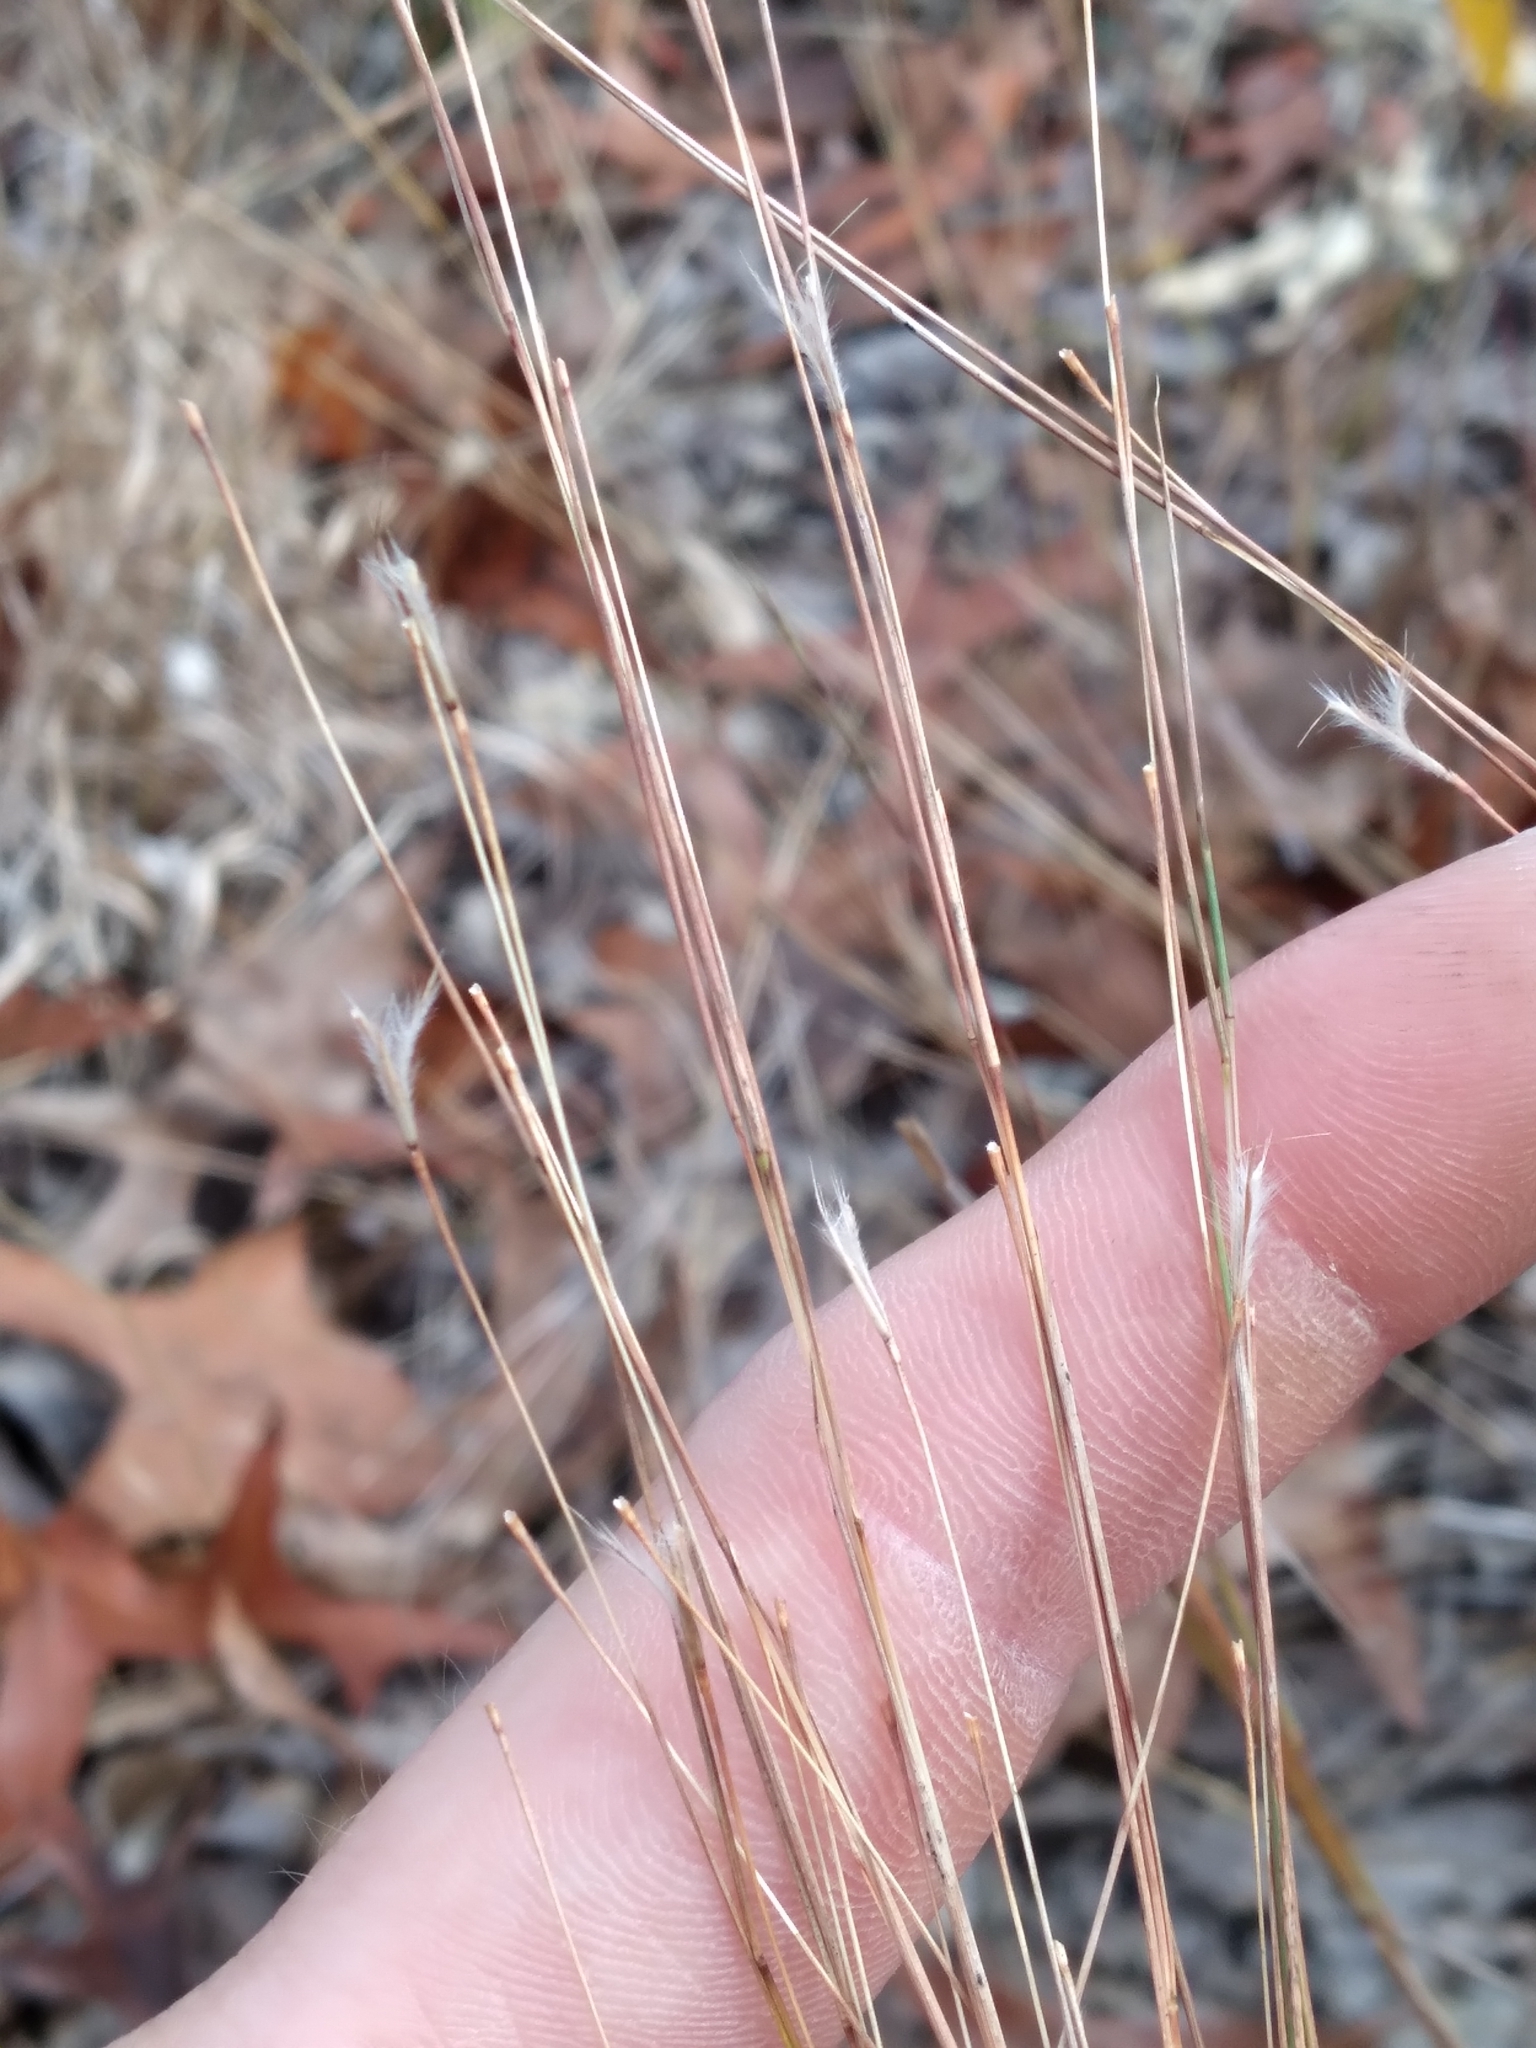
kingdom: Plantae
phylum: Tracheophyta
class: Liliopsida
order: Poales
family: Poaceae
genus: Schizachyrium
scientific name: Schizachyrium niveum
